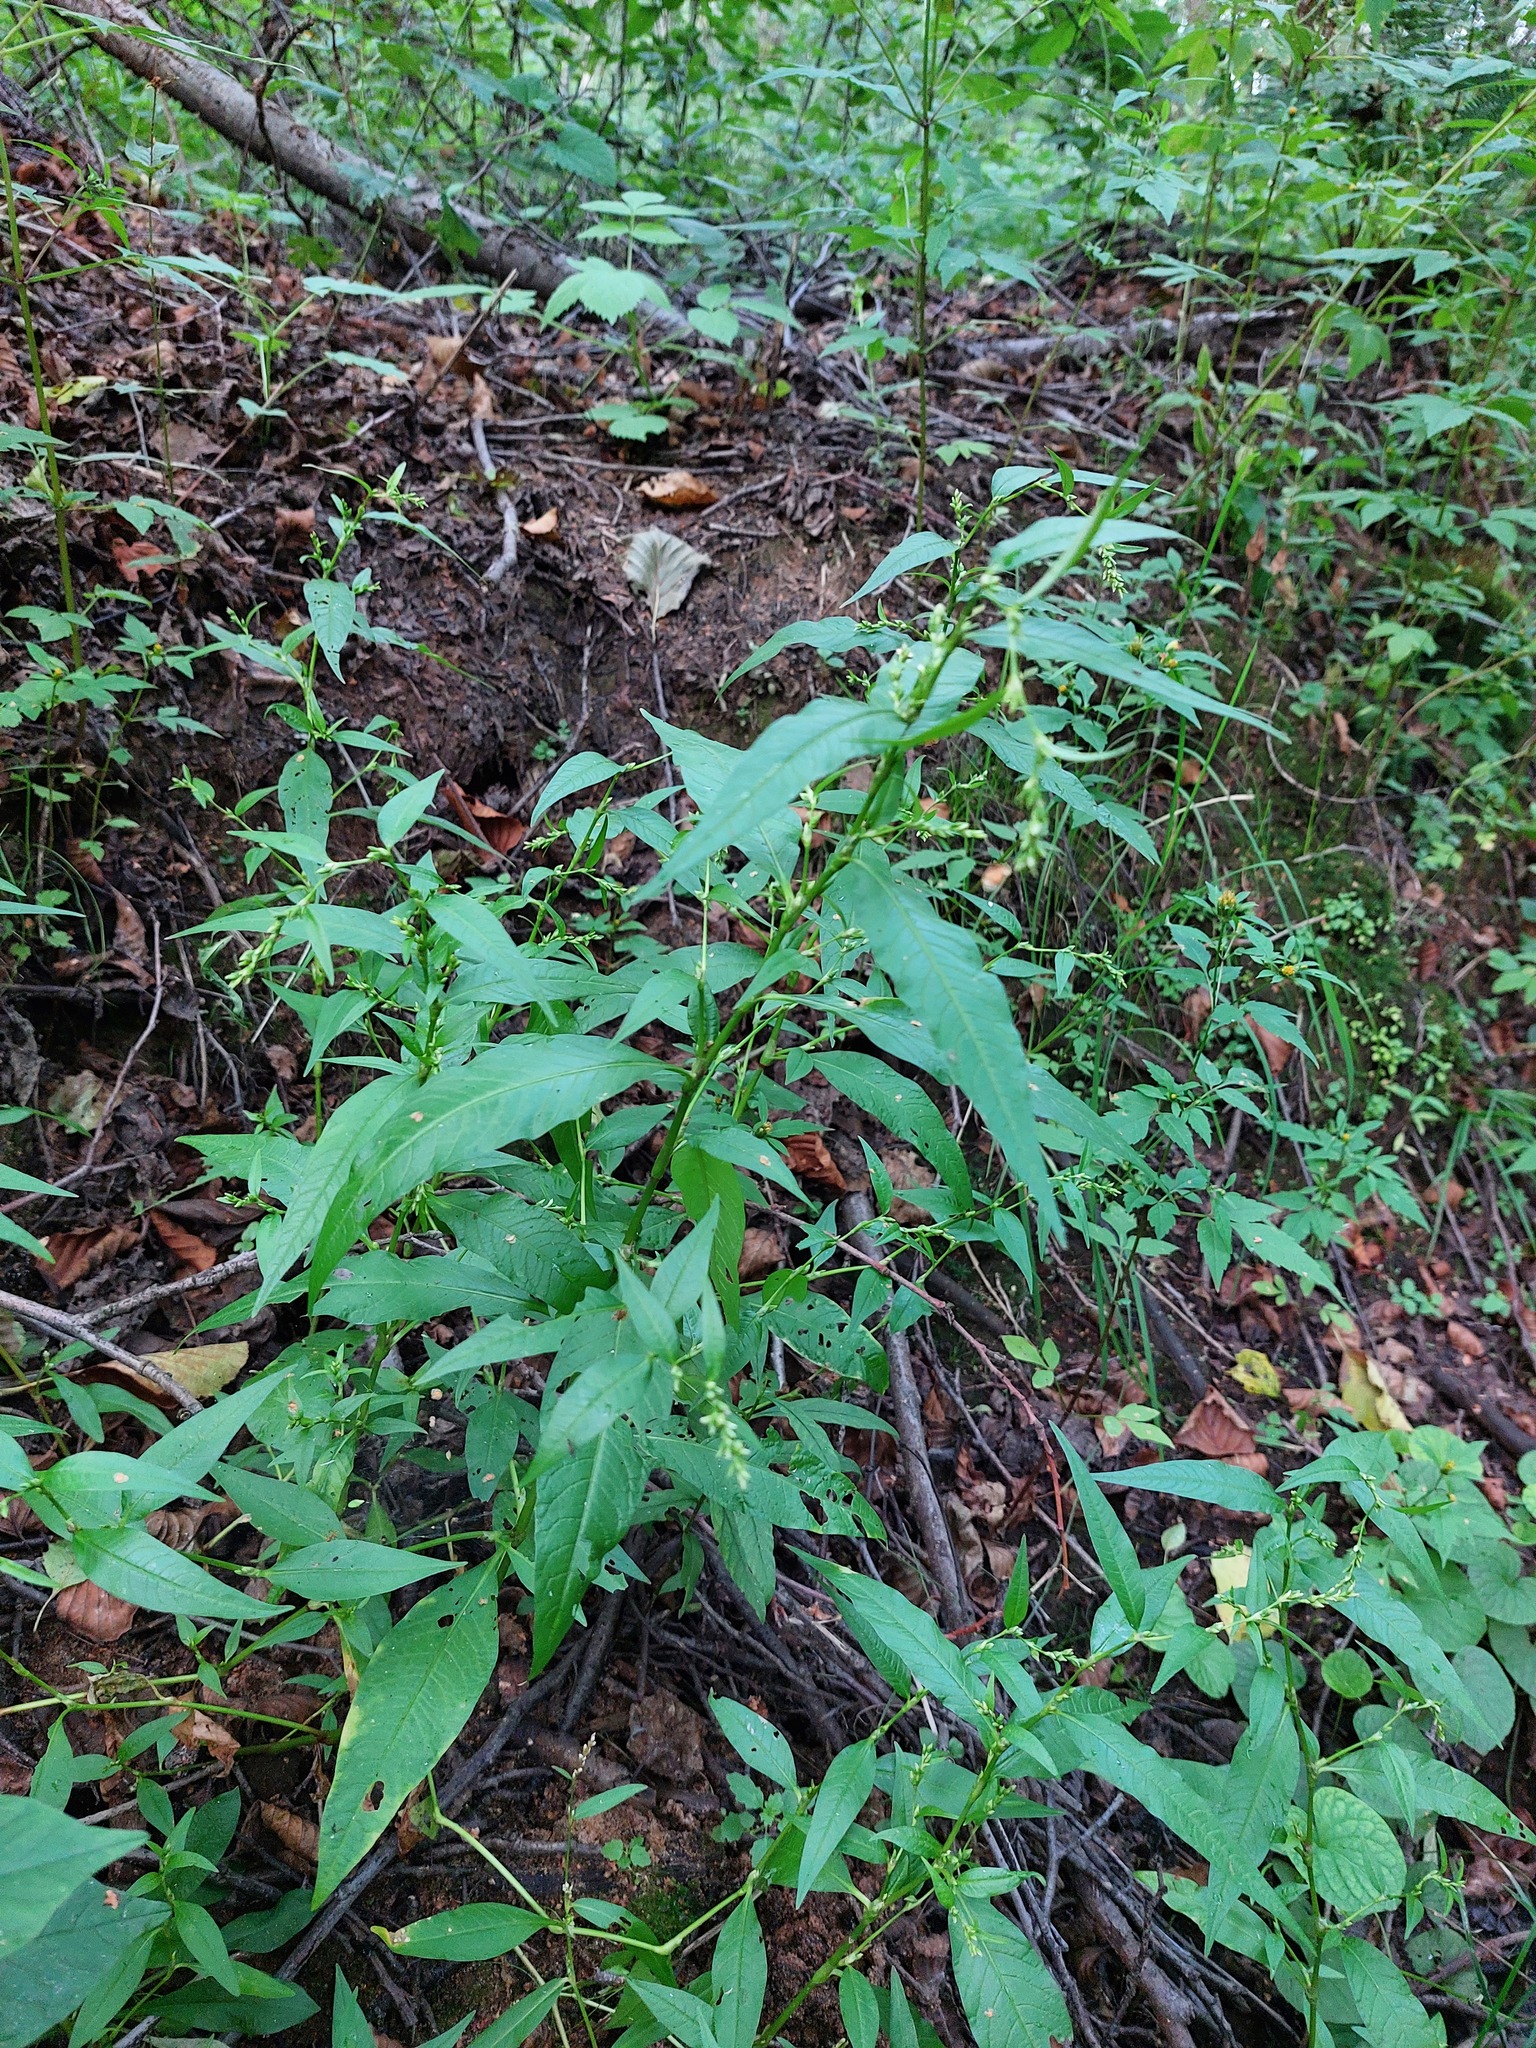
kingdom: Plantae
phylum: Tracheophyta
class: Magnoliopsida
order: Caryophyllales
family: Polygonaceae
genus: Persicaria
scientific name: Persicaria hydropiper
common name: Water-pepper
